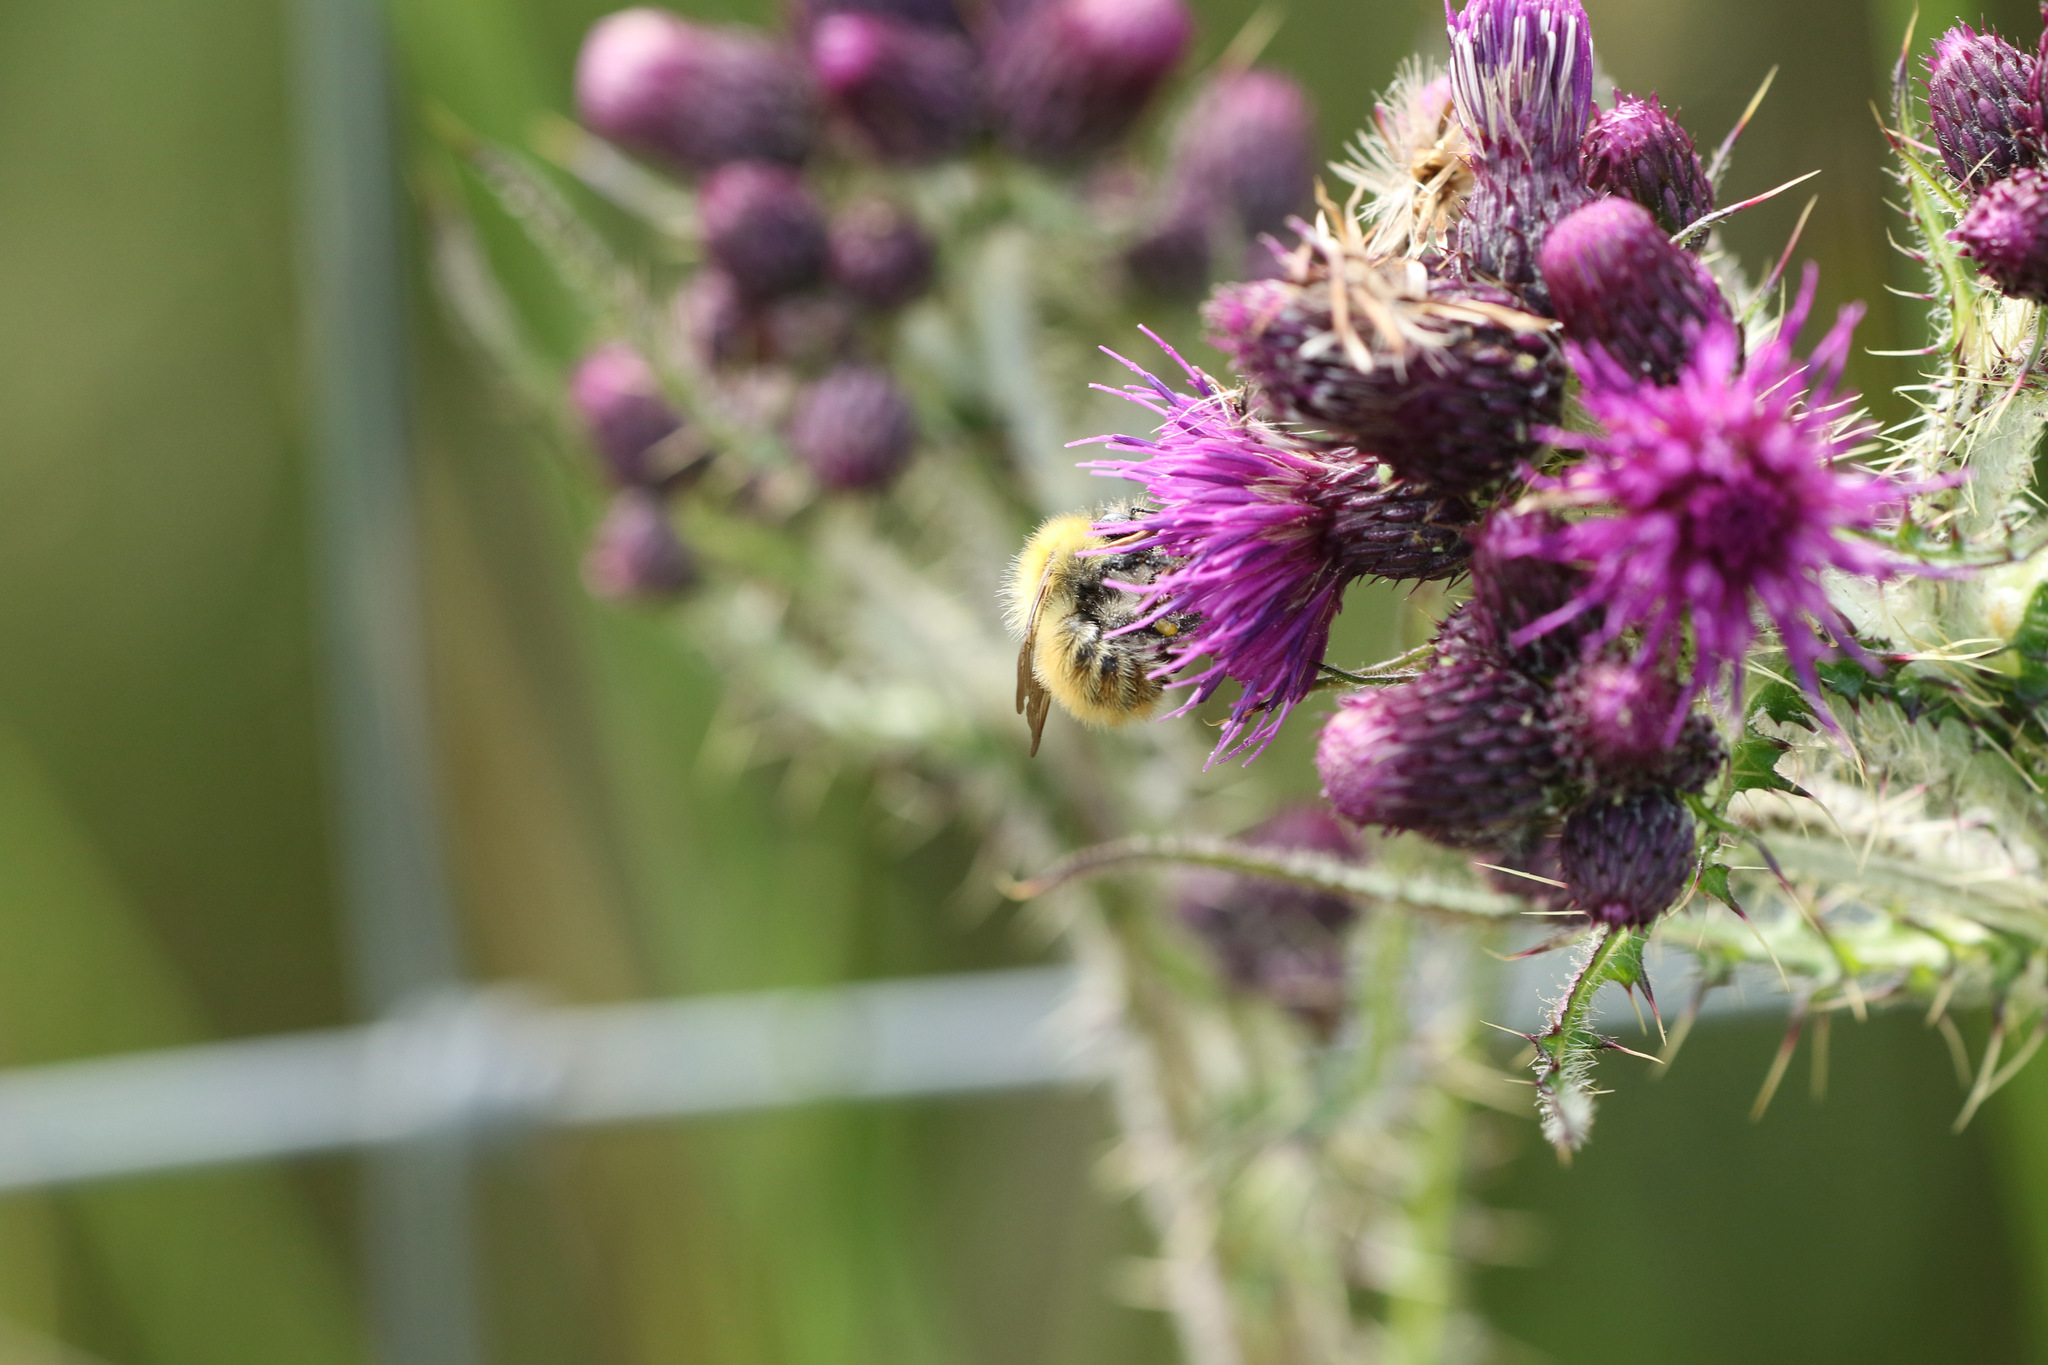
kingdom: Animalia
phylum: Arthropoda
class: Insecta
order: Hymenoptera
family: Apidae
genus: Bombus
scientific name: Bombus pascuorum
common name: Common carder bee
